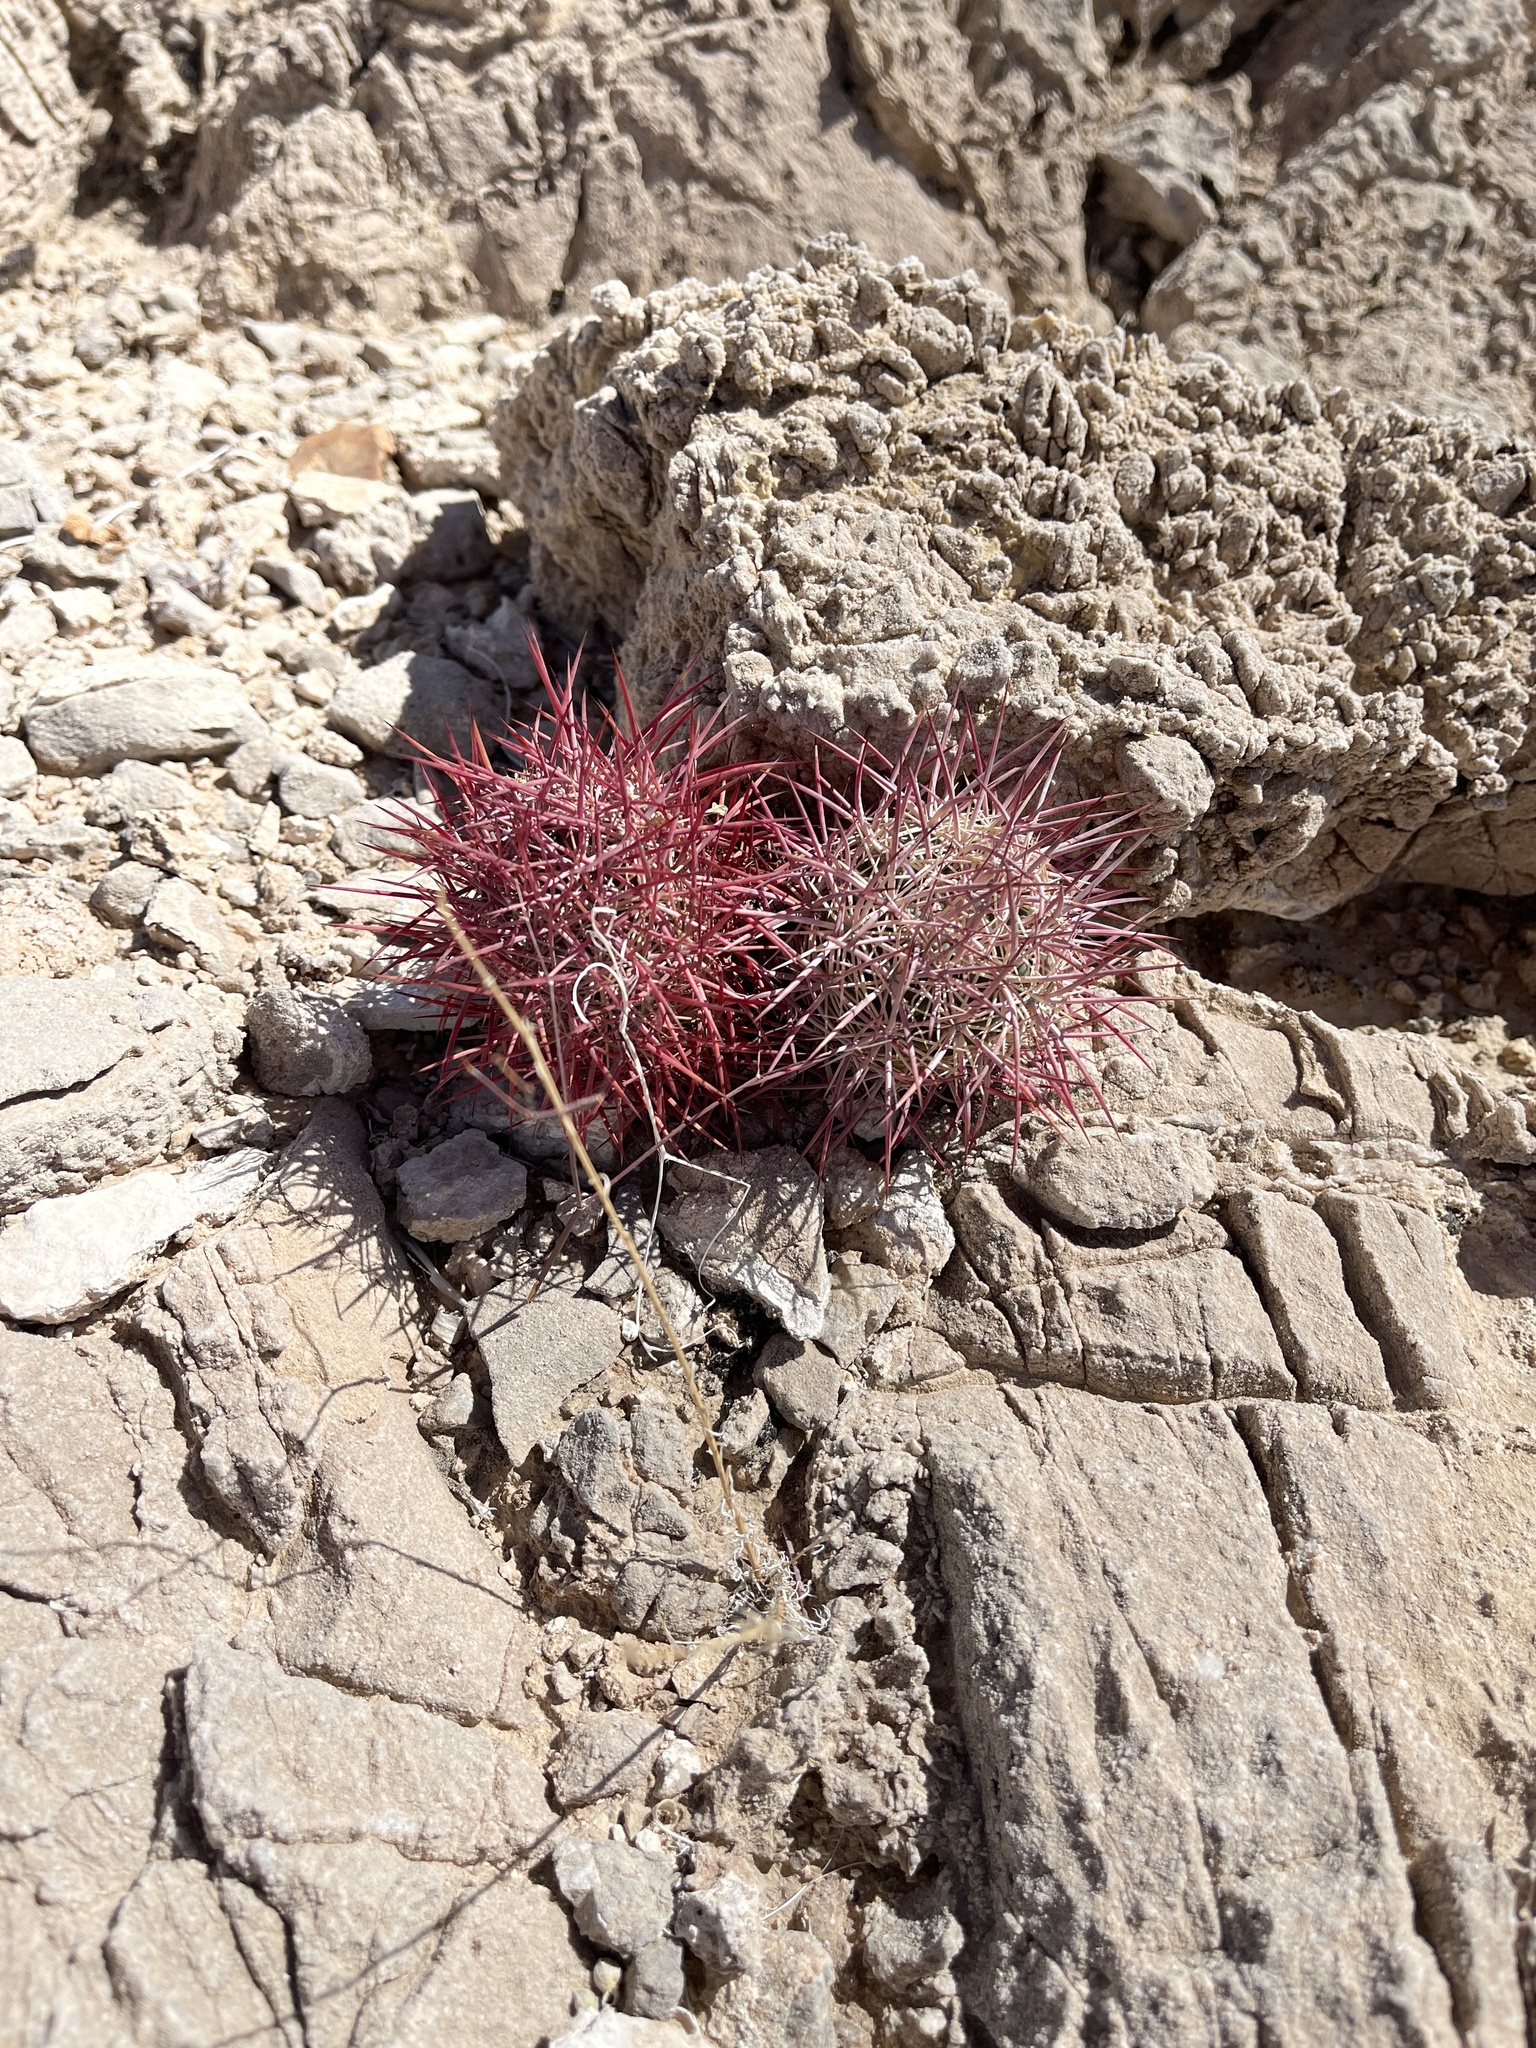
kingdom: Plantae
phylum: Tracheophyta
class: Magnoliopsida
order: Caryophyllales
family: Cactaceae
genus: Sclerocactus
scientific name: Sclerocactus johnsonii
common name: Eight-spine fishhook cactus
